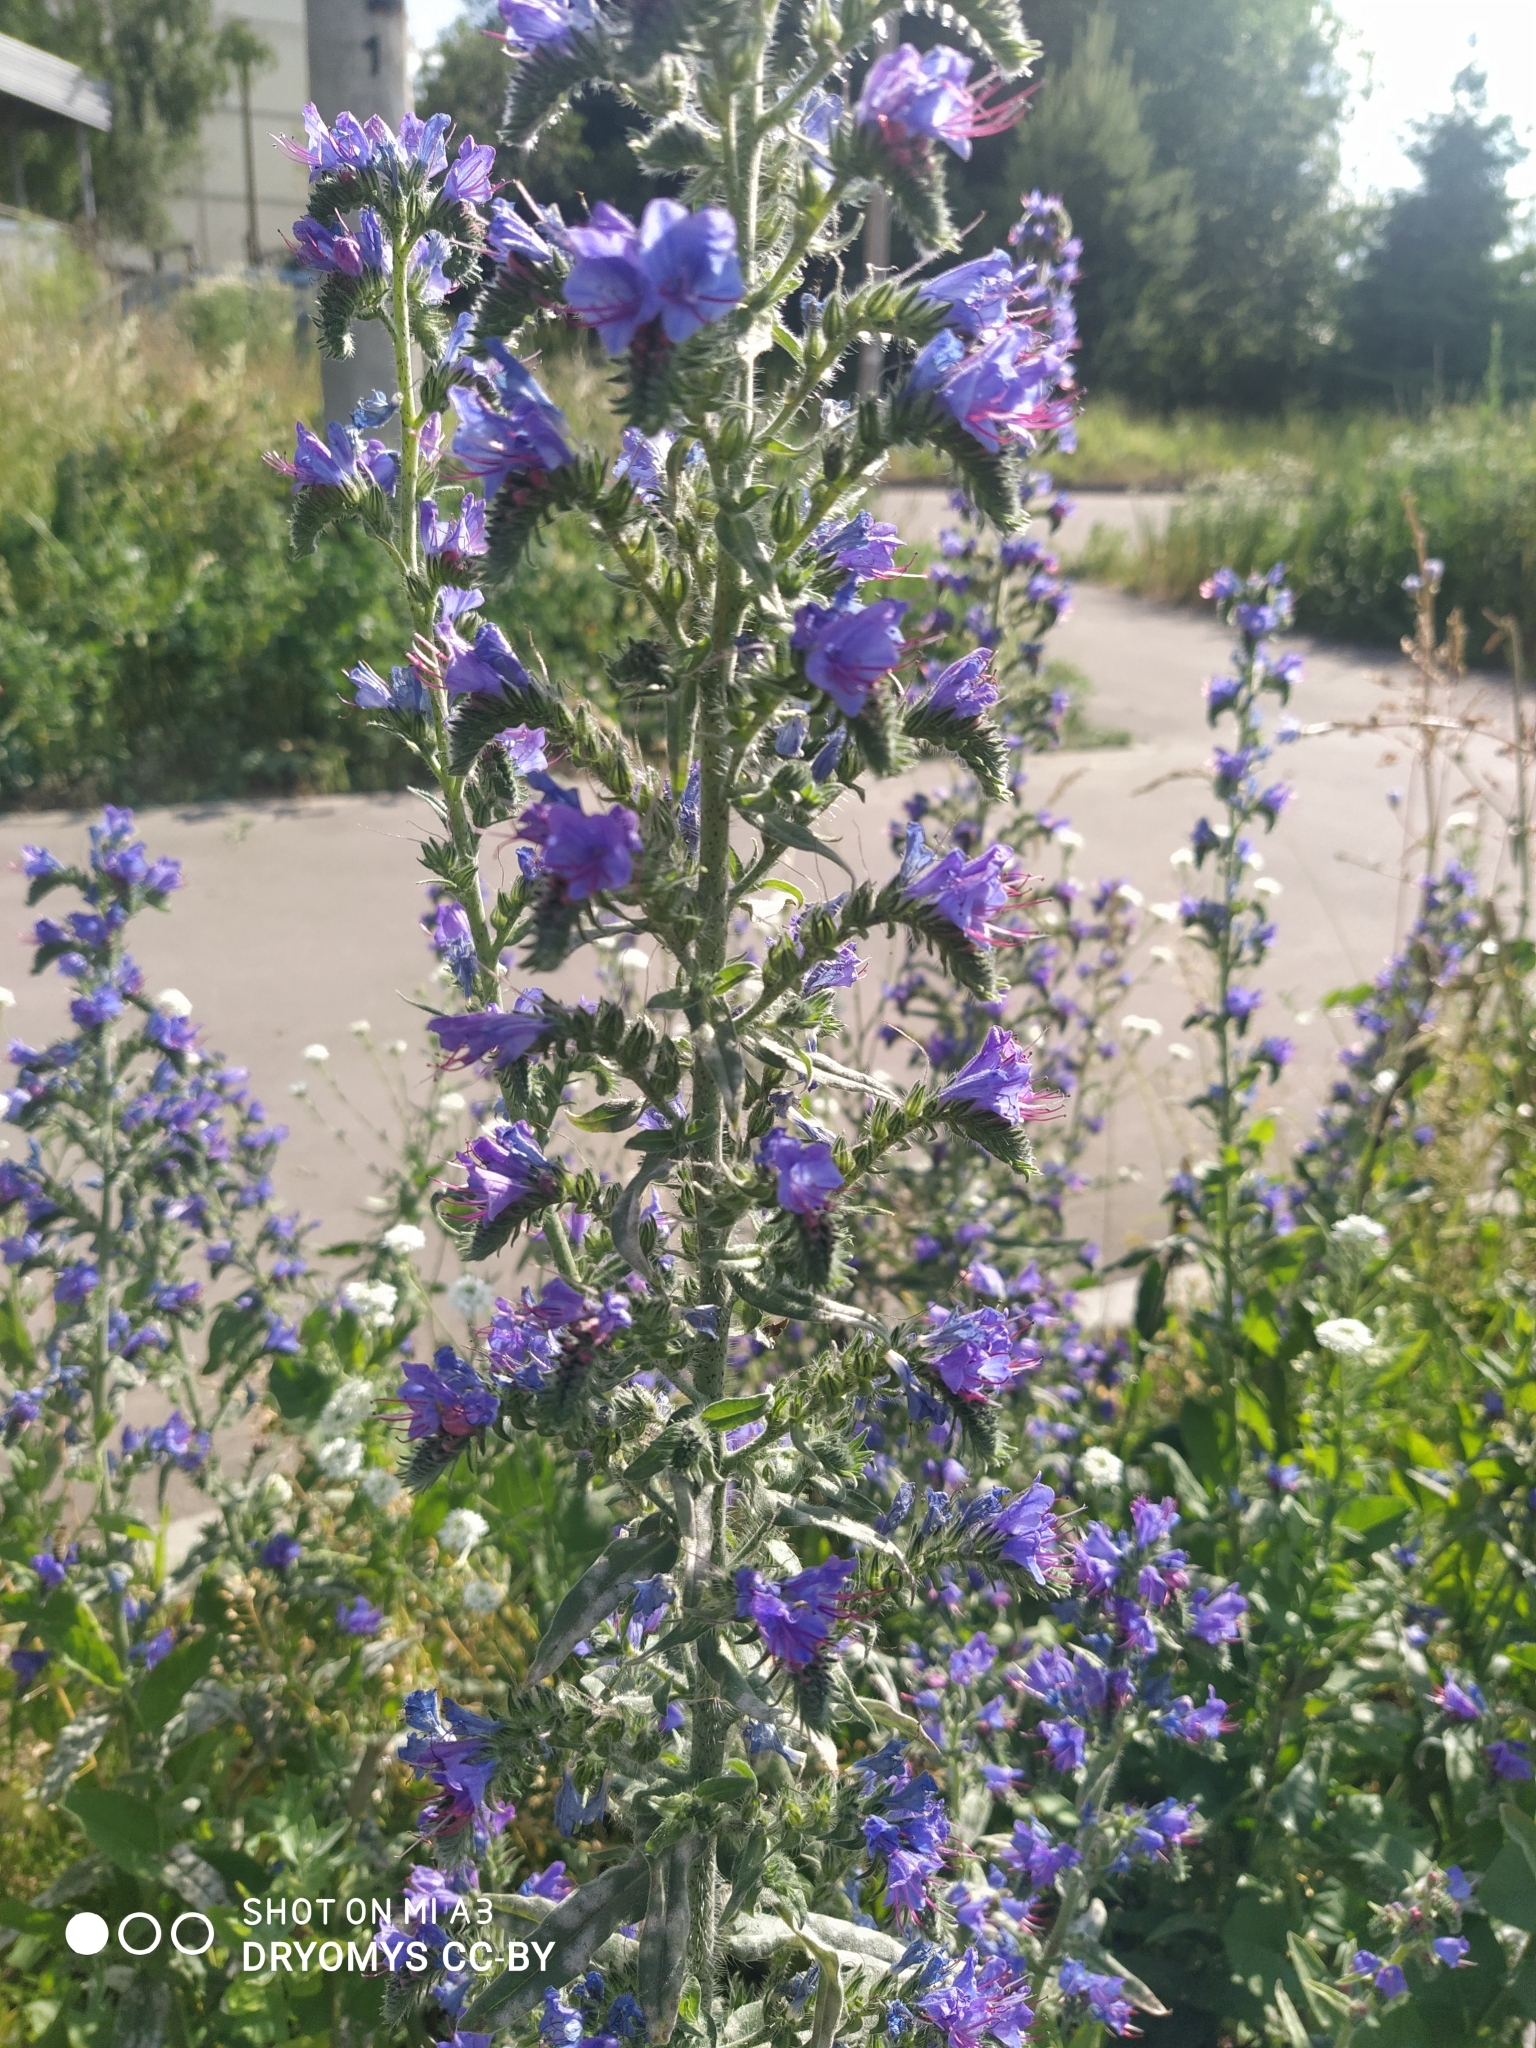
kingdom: Plantae
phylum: Tracheophyta
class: Magnoliopsida
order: Boraginales
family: Boraginaceae
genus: Echium
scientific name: Echium vulgare
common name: Common viper's bugloss
